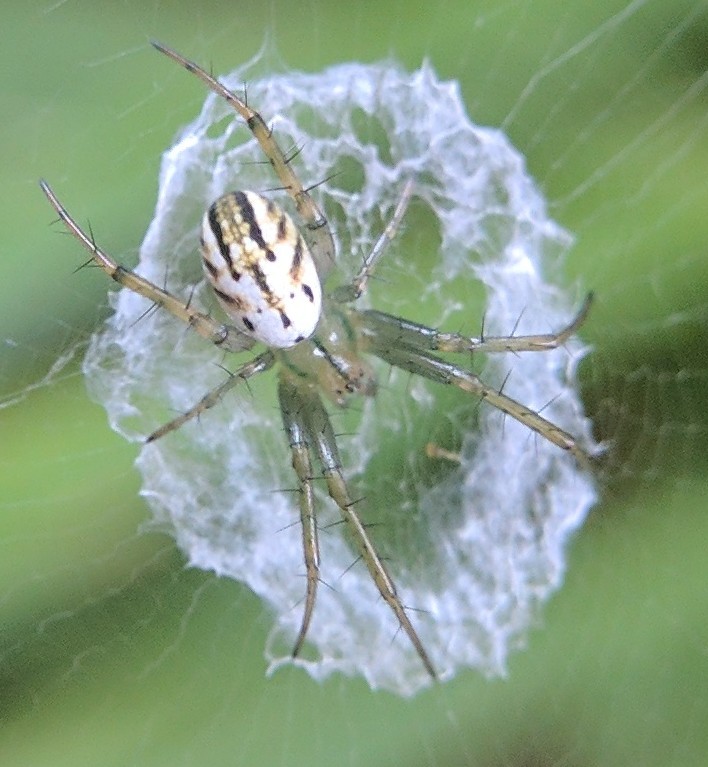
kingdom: Animalia
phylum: Arthropoda
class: Arachnida
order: Araneae
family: Araneidae
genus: Mangora
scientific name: Mangora gibberosa
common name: Lined orbweaver
